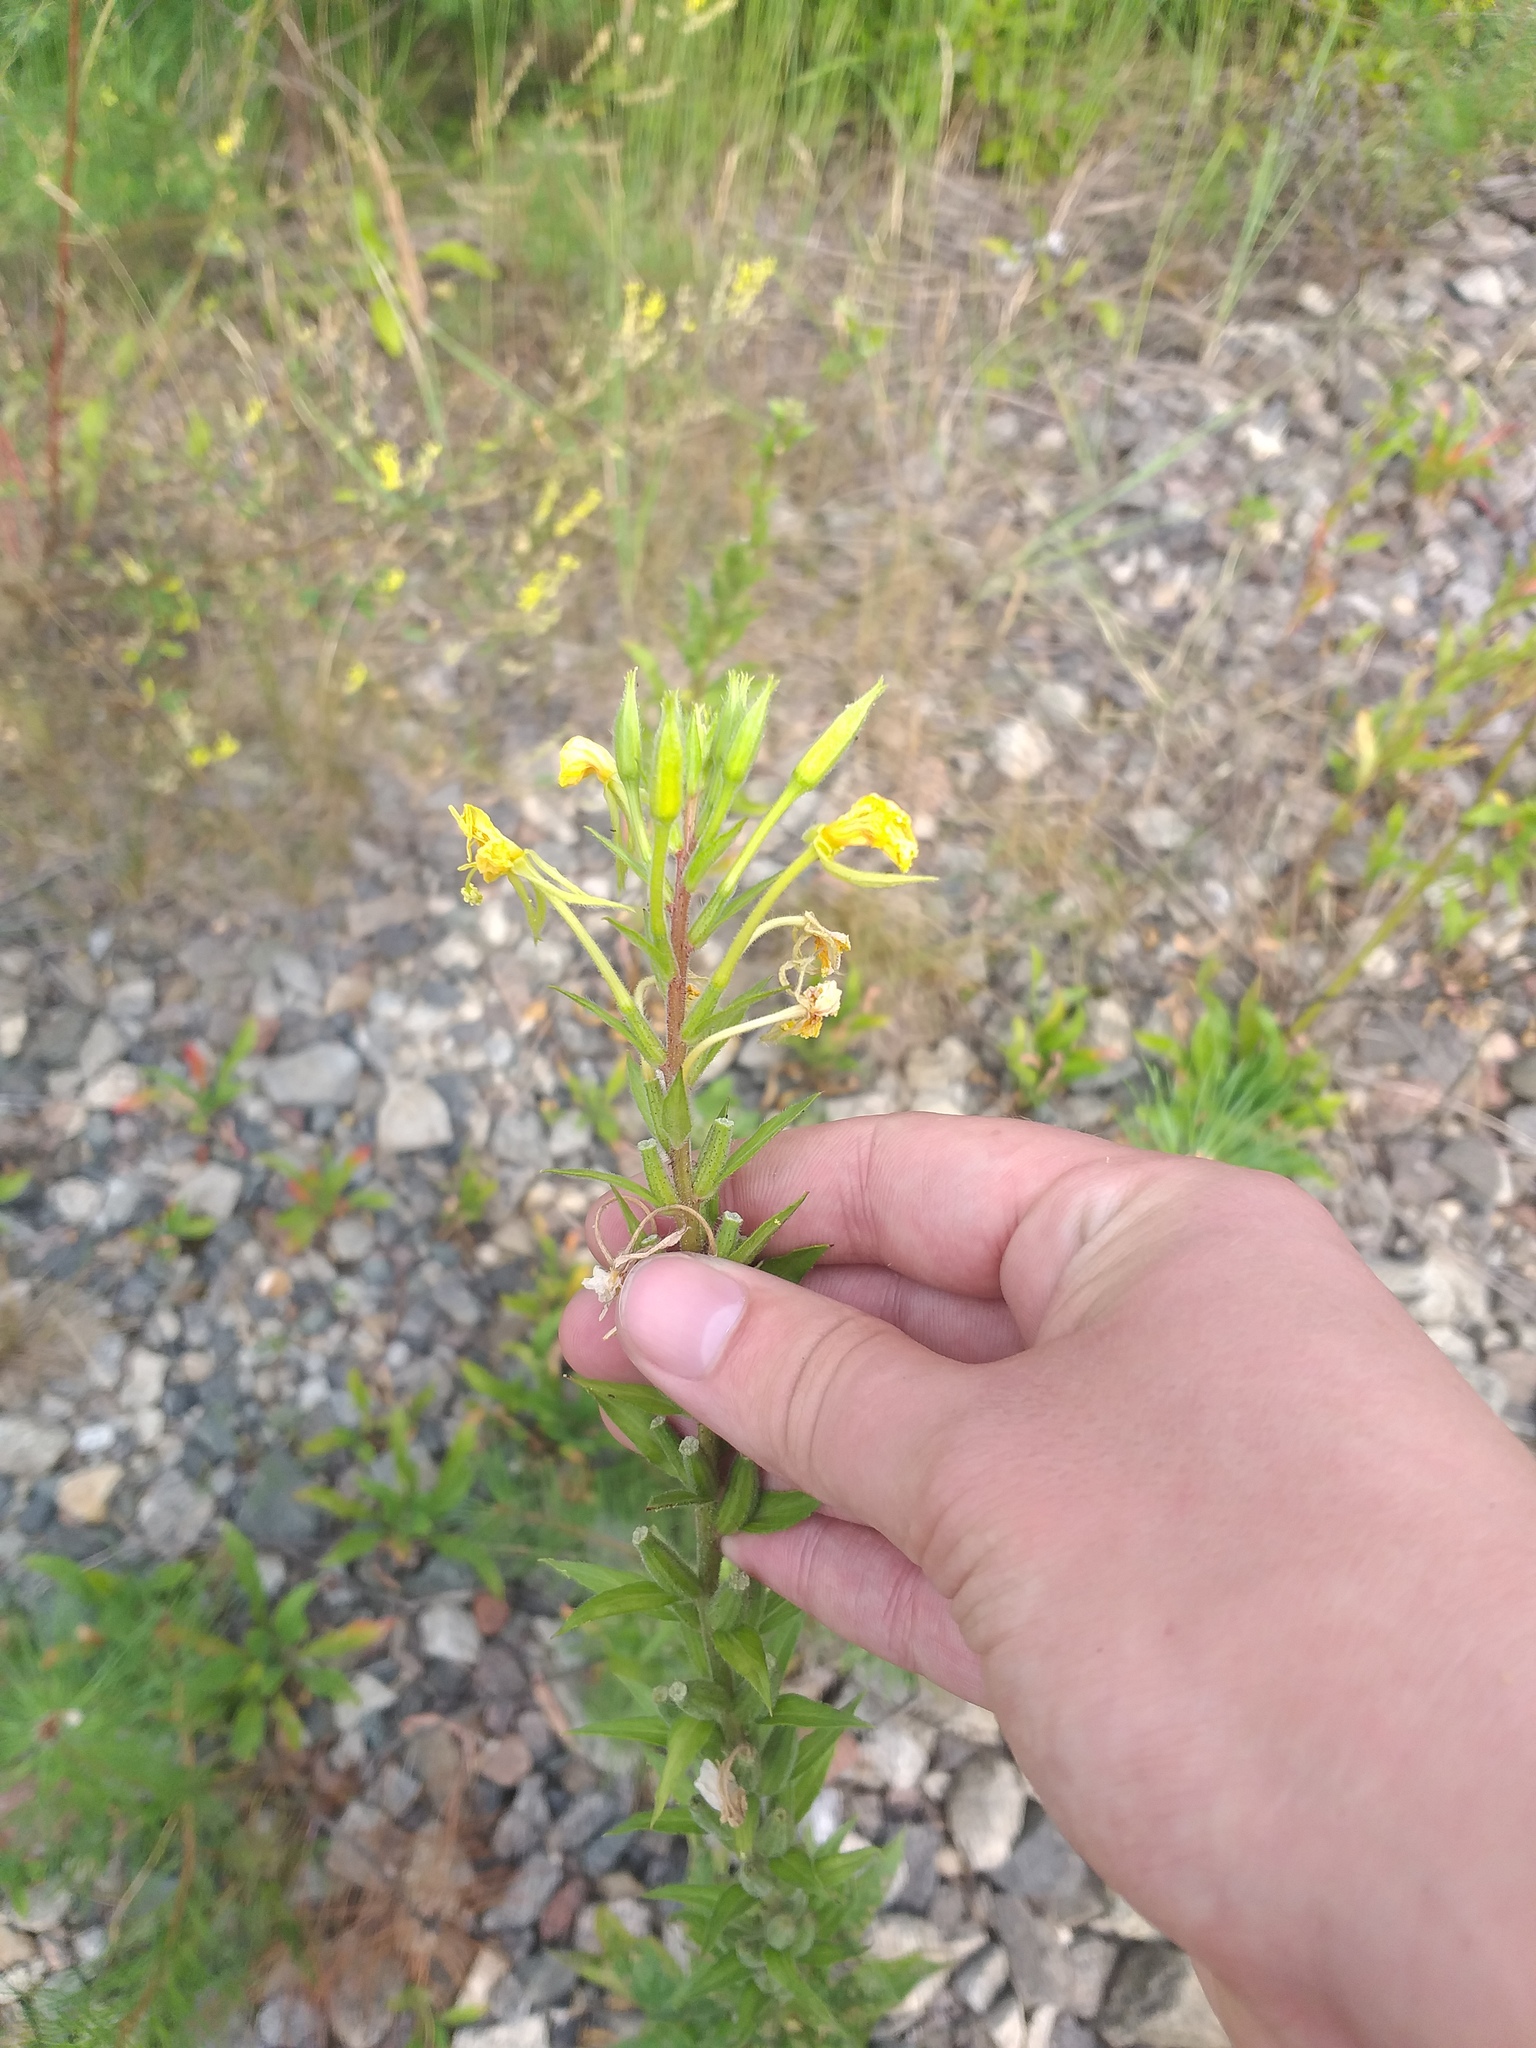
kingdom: Plantae
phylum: Tracheophyta
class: Magnoliopsida
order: Myrtales
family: Onagraceae
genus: Oenothera
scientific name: Oenothera rubricaulis
